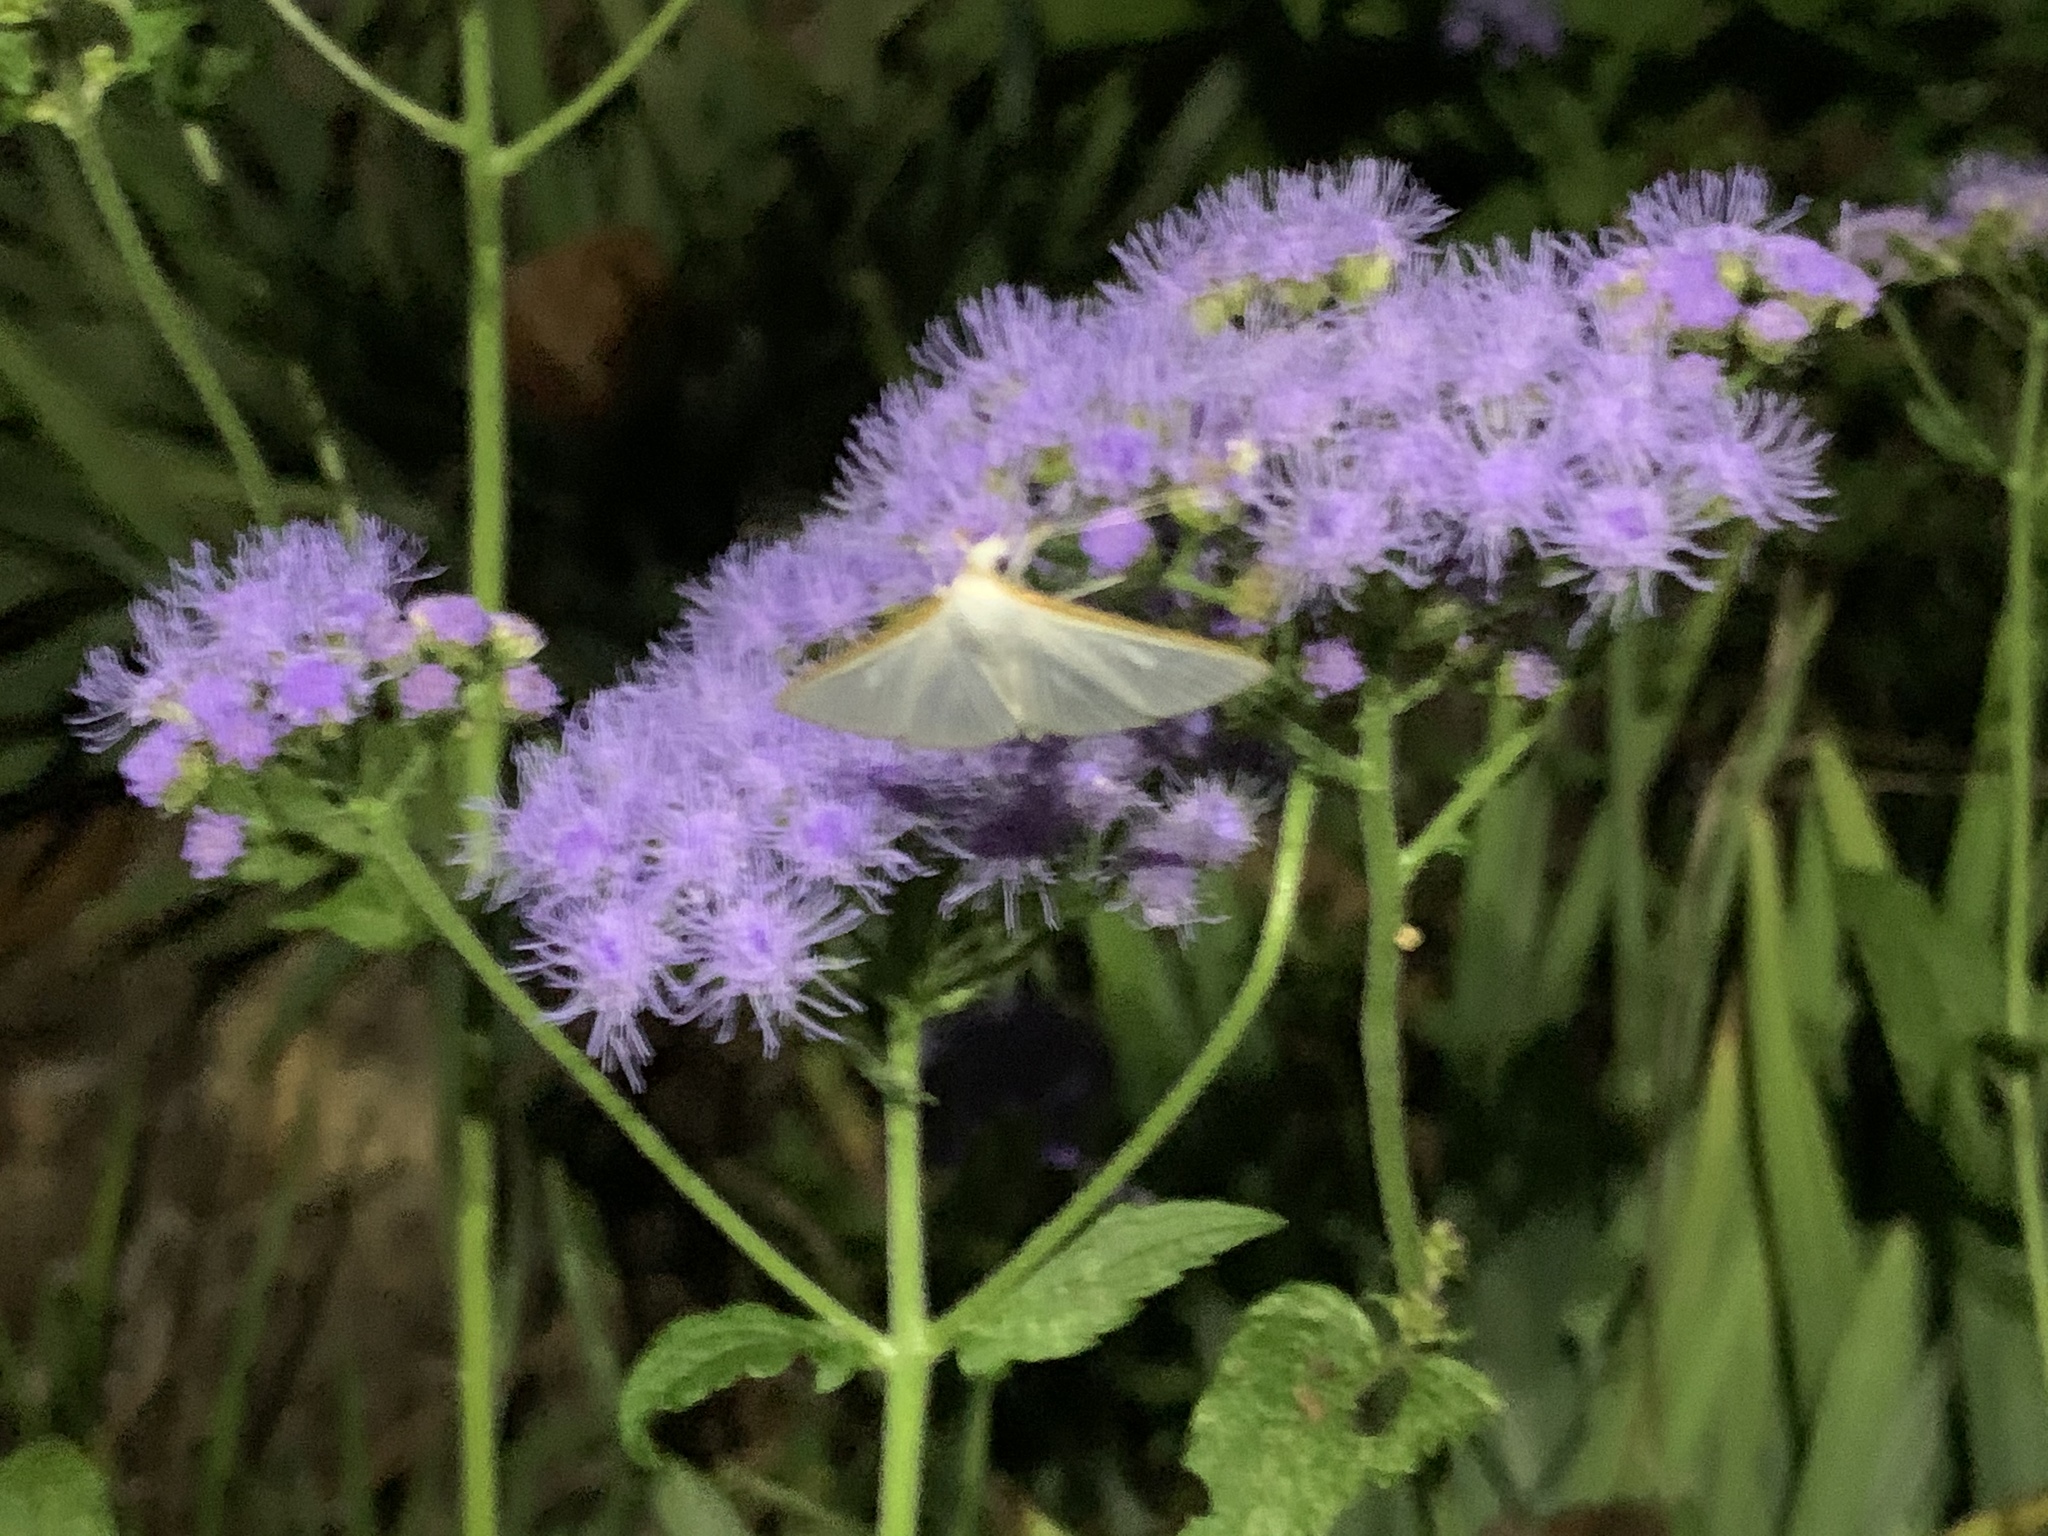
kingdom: Animalia
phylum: Arthropoda
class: Insecta
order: Lepidoptera
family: Crambidae
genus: Diaphania
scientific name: Diaphania costata
